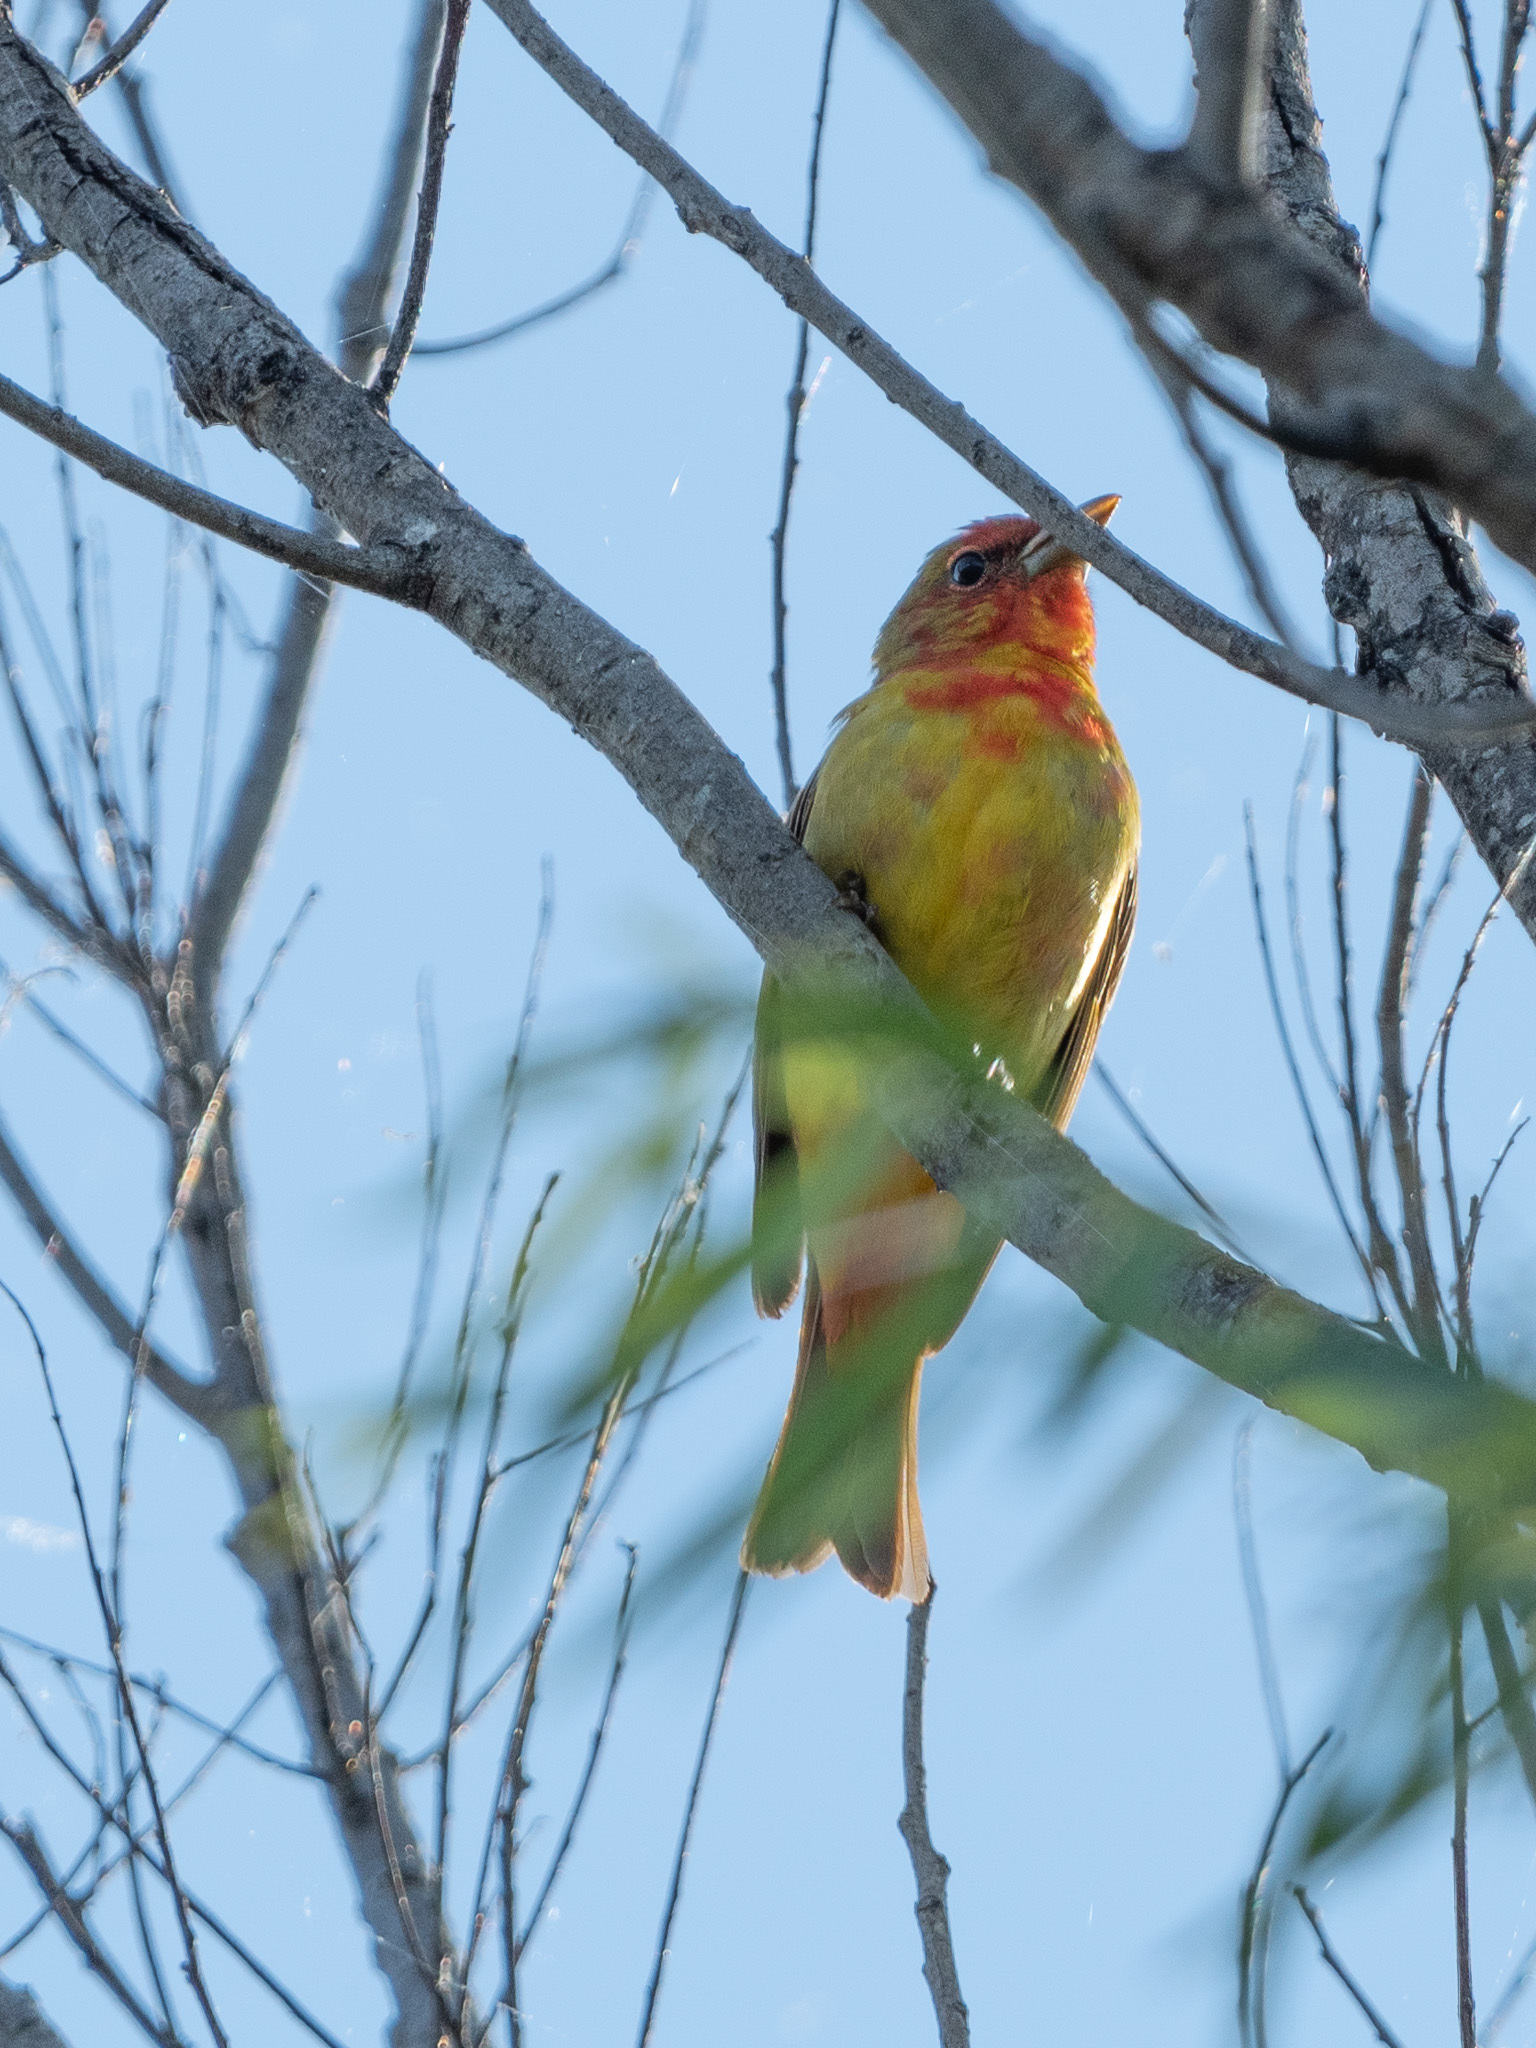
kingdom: Animalia
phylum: Chordata
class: Aves
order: Passeriformes
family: Cardinalidae
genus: Piranga
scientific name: Piranga rubra
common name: Summer tanager
